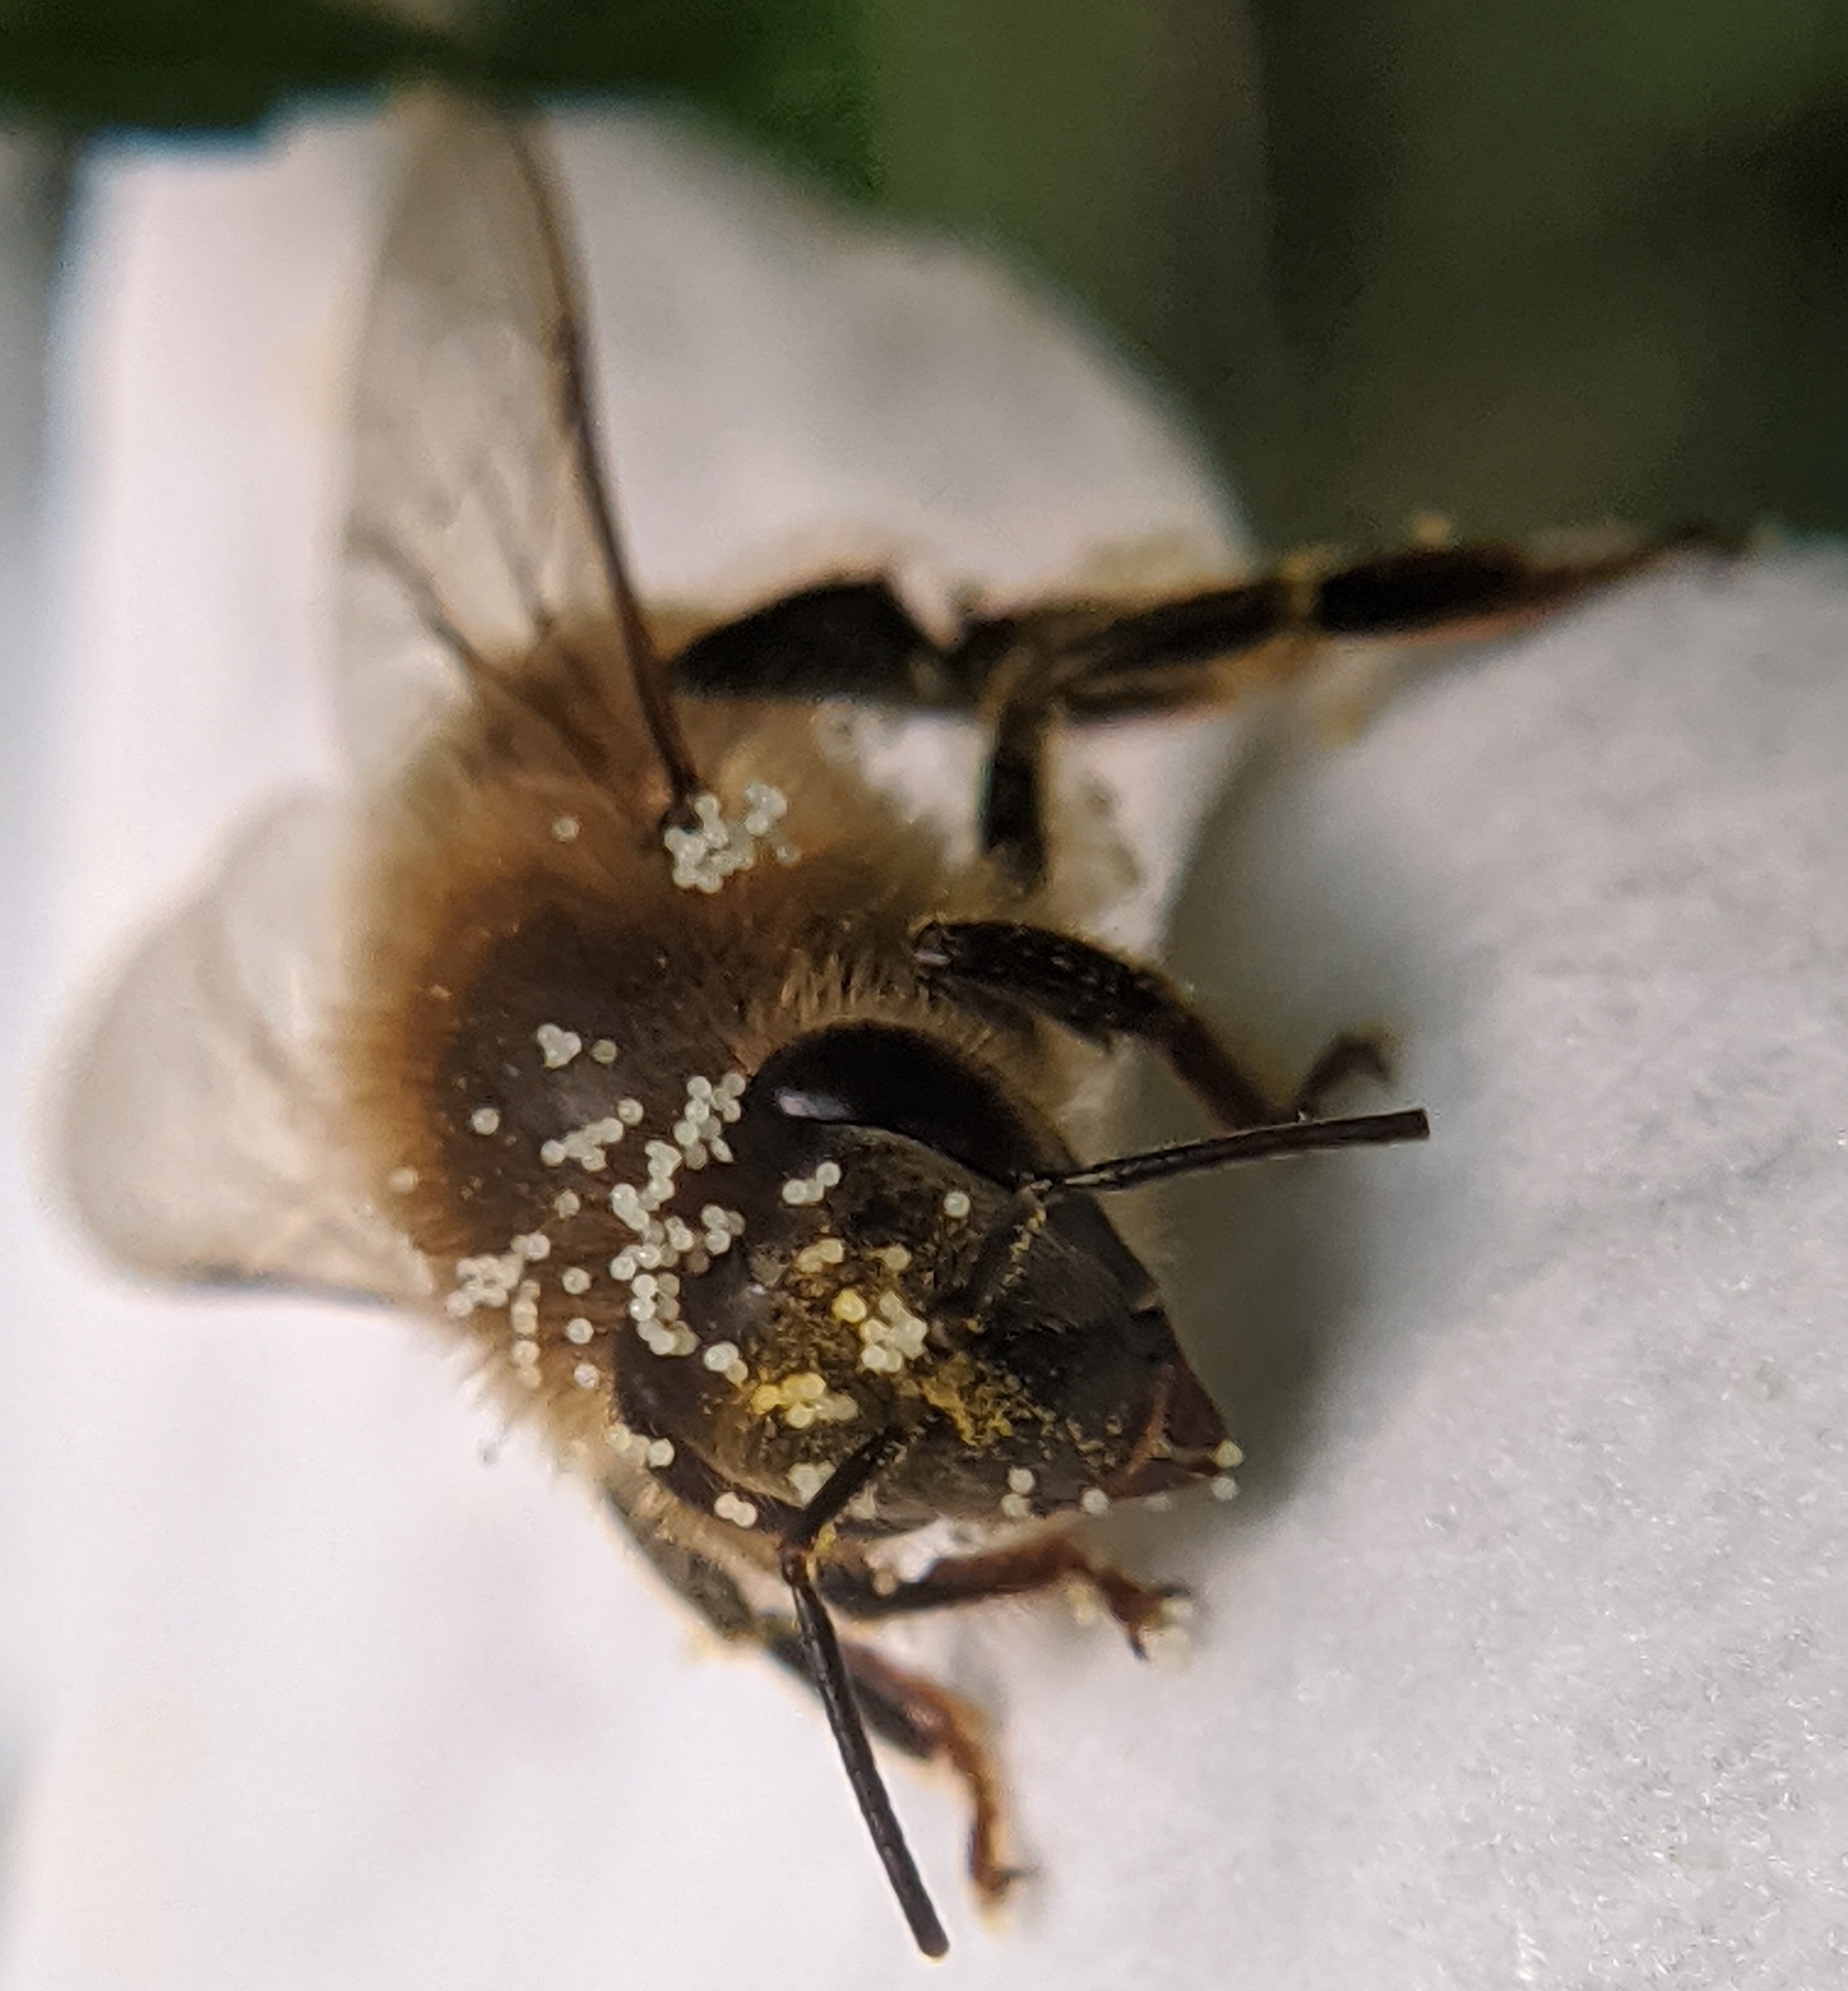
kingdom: Animalia
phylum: Arthropoda
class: Insecta
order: Hymenoptera
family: Apidae
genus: Apis
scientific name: Apis mellifera
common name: Honey bee
